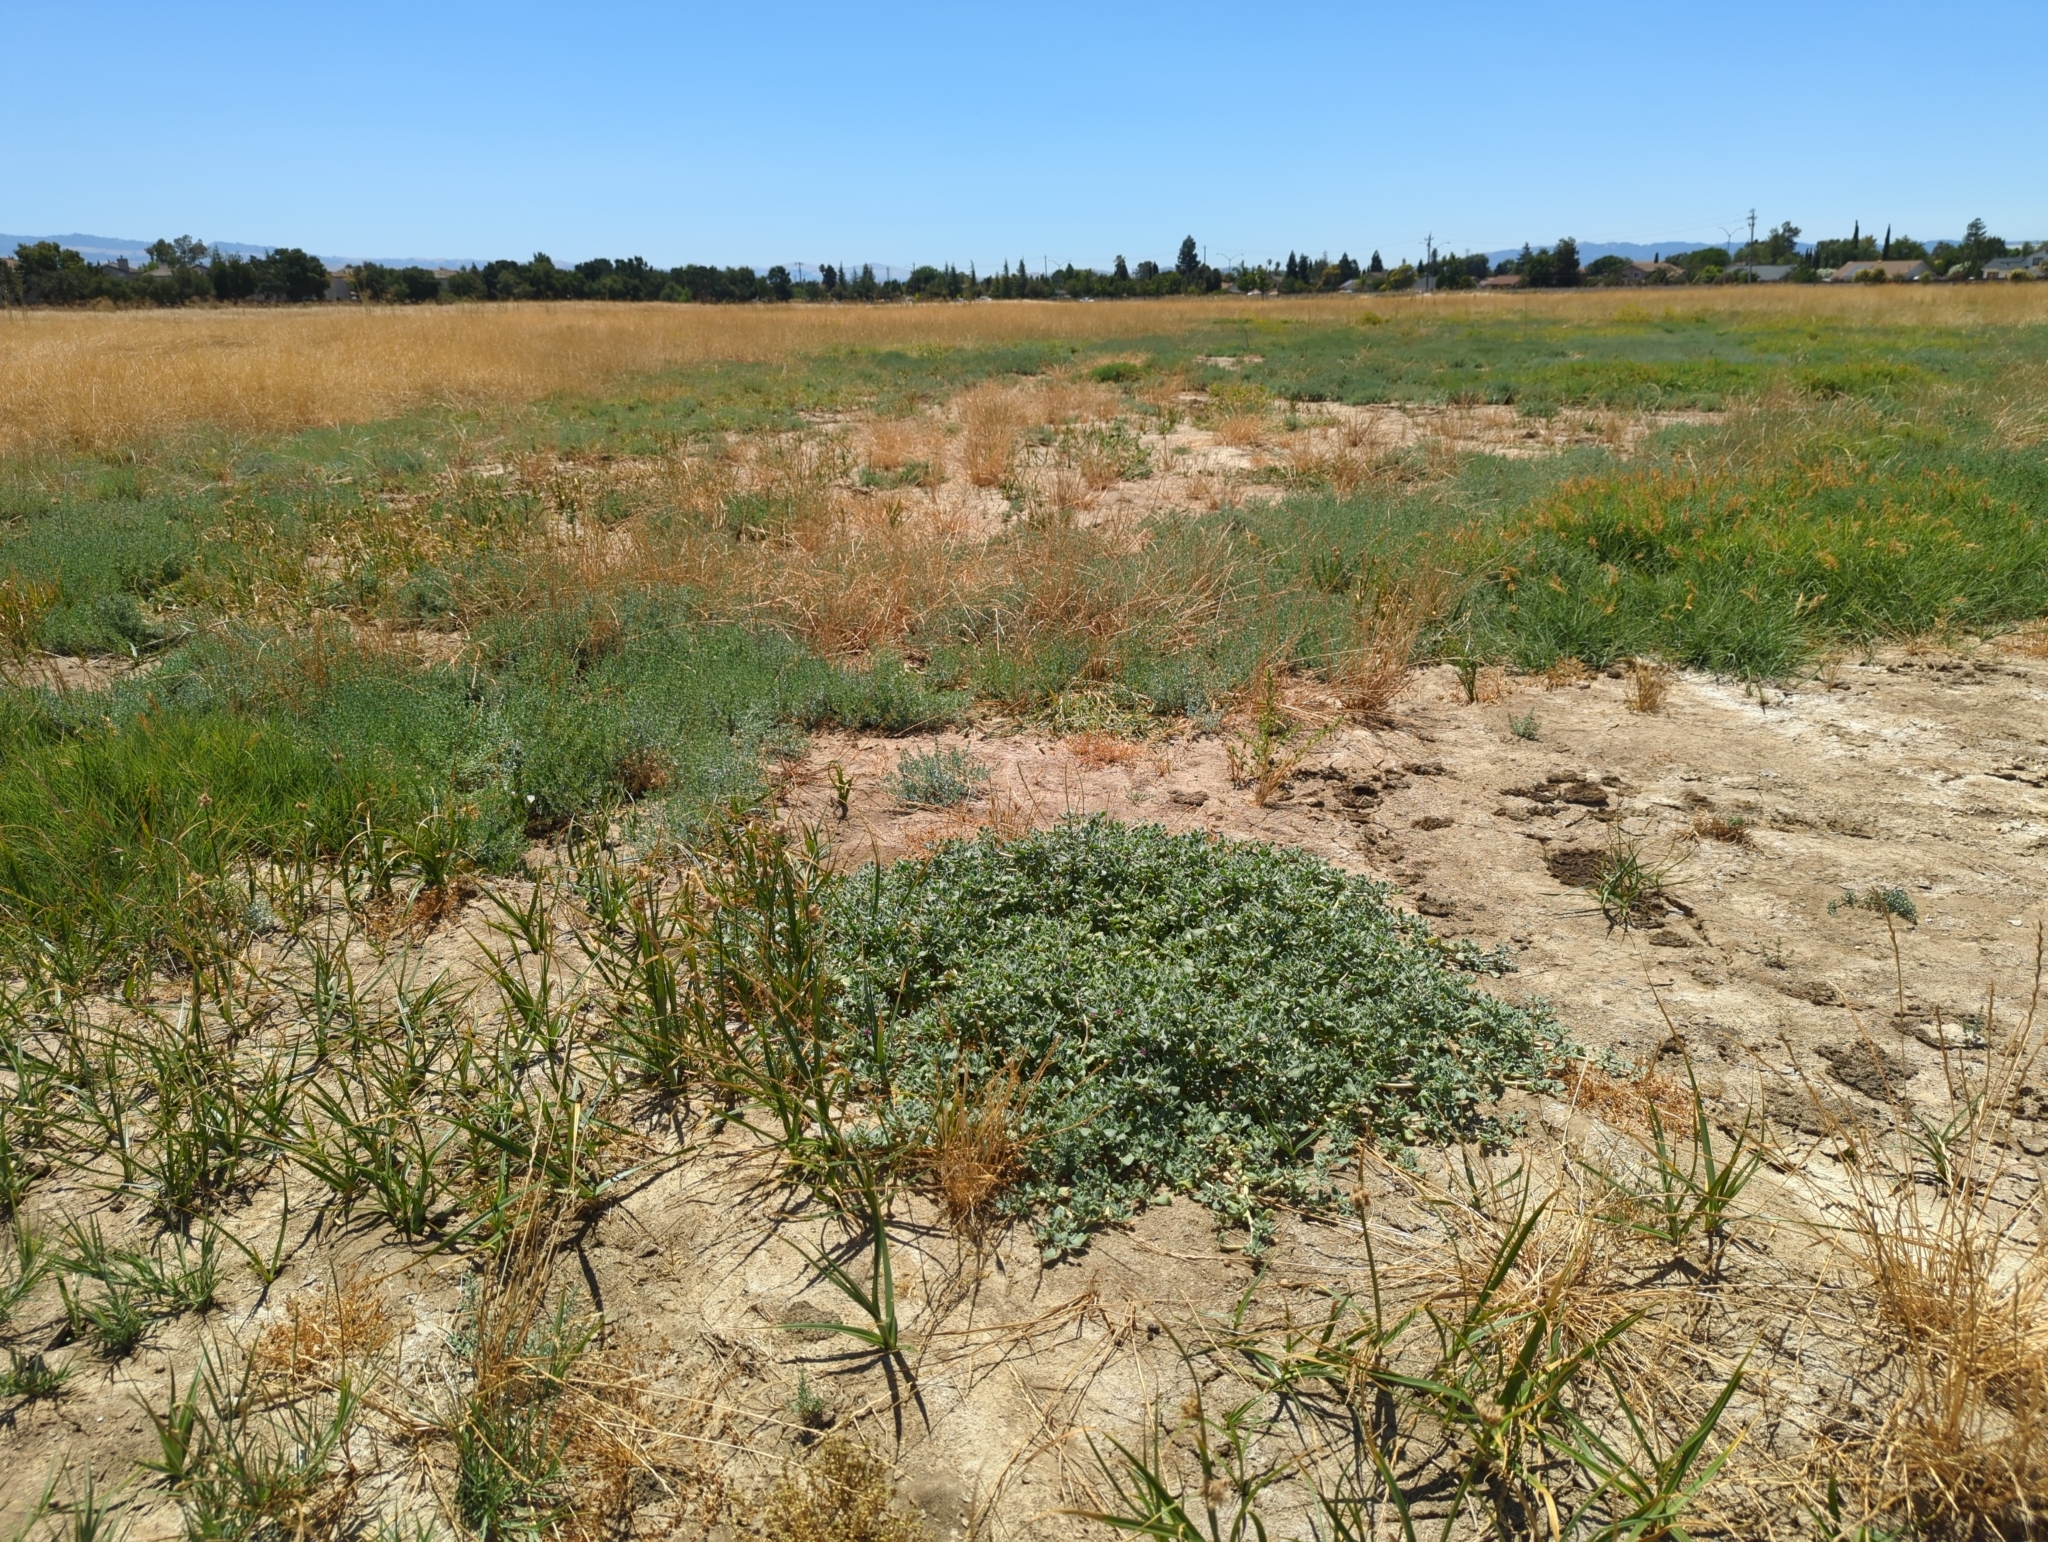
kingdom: Plantae
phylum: Tracheophyta
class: Magnoliopsida
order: Caryophyllales
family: Aizoaceae
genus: Sesuvium
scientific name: Sesuvium revolutifolium
